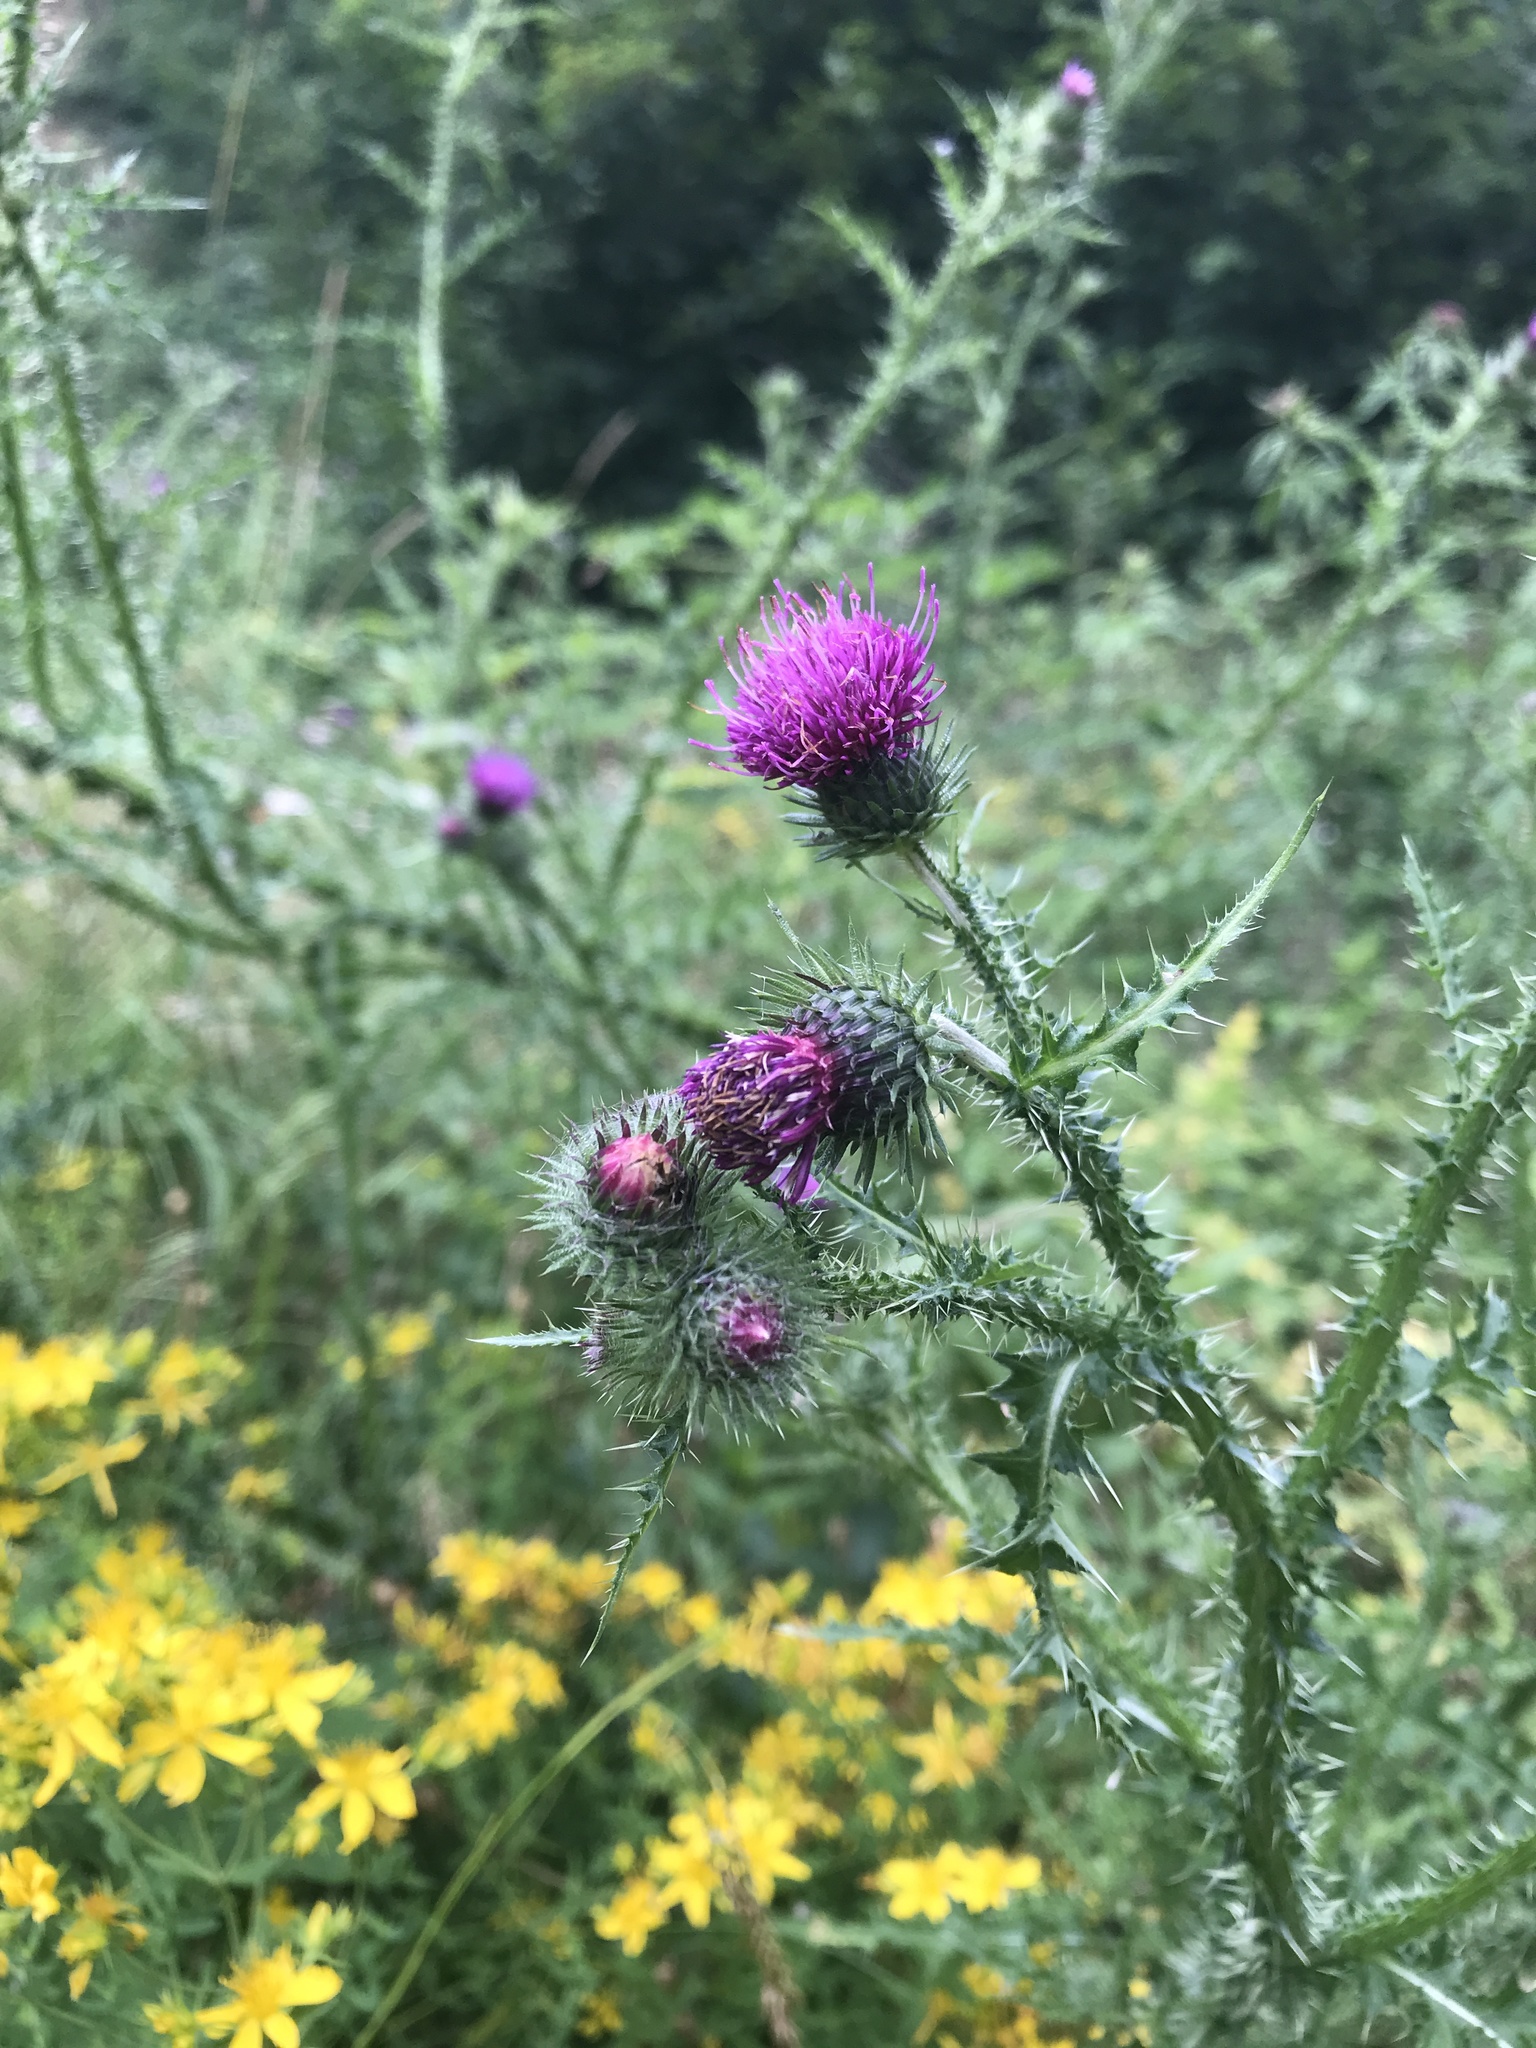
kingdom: Plantae
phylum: Tracheophyta
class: Magnoliopsida
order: Asterales
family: Asteraceae
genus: Carduus
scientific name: Carduus crispus
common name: Welted thistle
